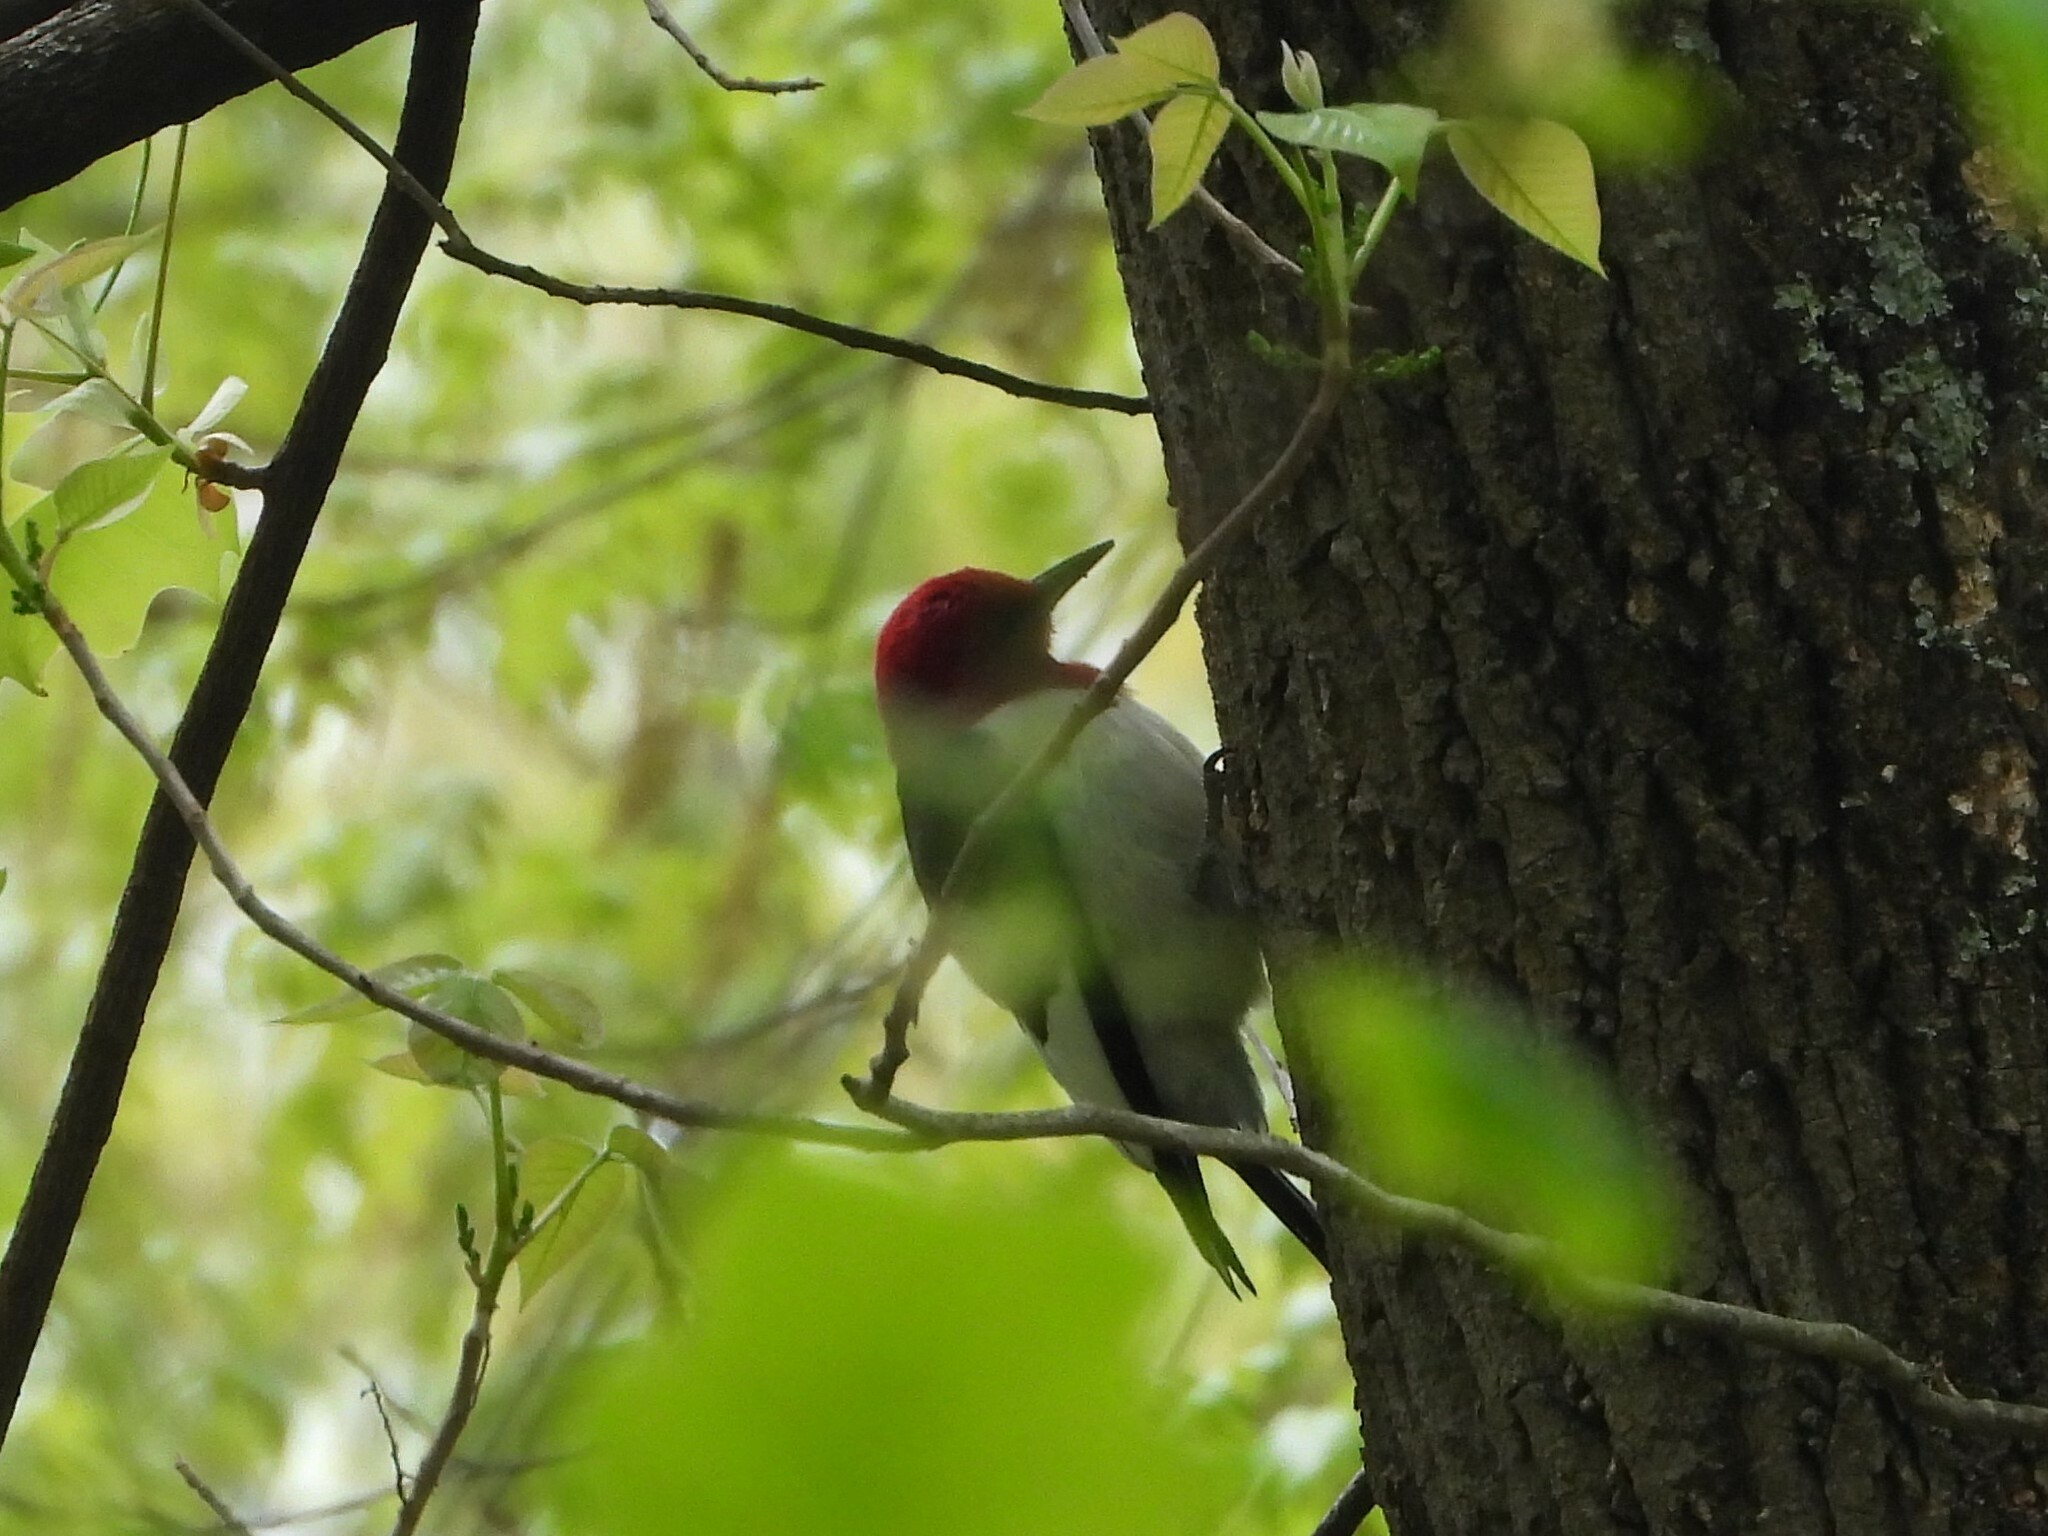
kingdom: Animalia
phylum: Chordata
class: Aves
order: Piciformes
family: Picidae
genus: Melanerpes
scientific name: Melanerpes erythrocephalus
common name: Red-headed woodpecker
